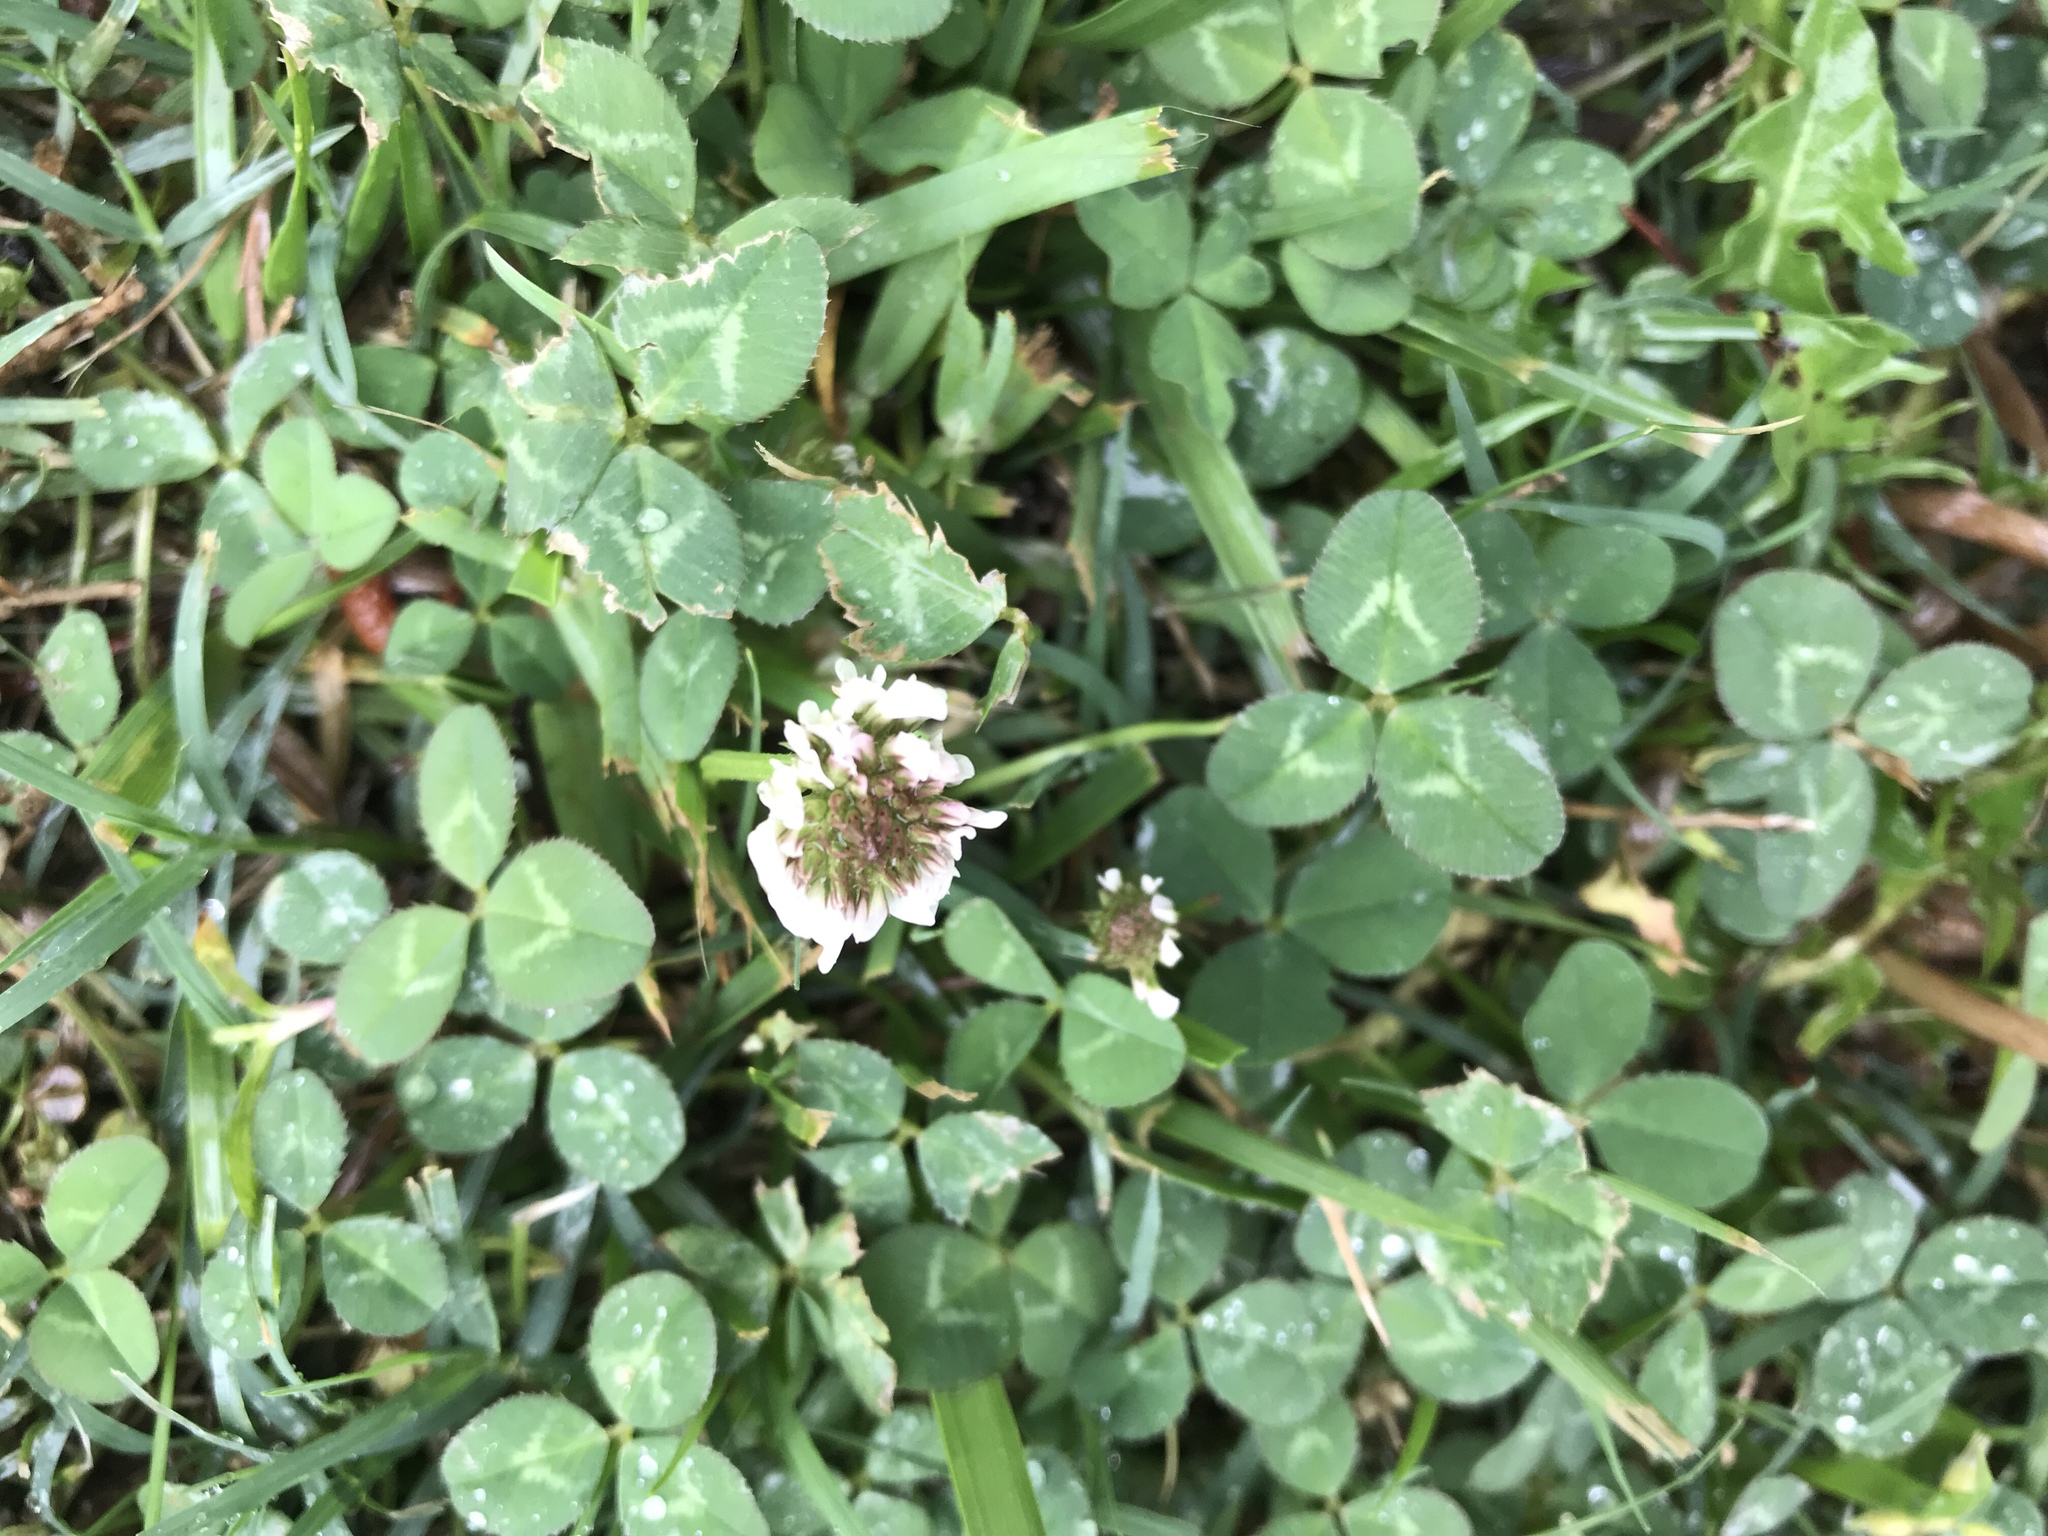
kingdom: Plantae
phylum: Tracheophyta
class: Magnoliopsida
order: Fabales
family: Fabaceae
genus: Trifolium
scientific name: Trifolium repens
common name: White clover
